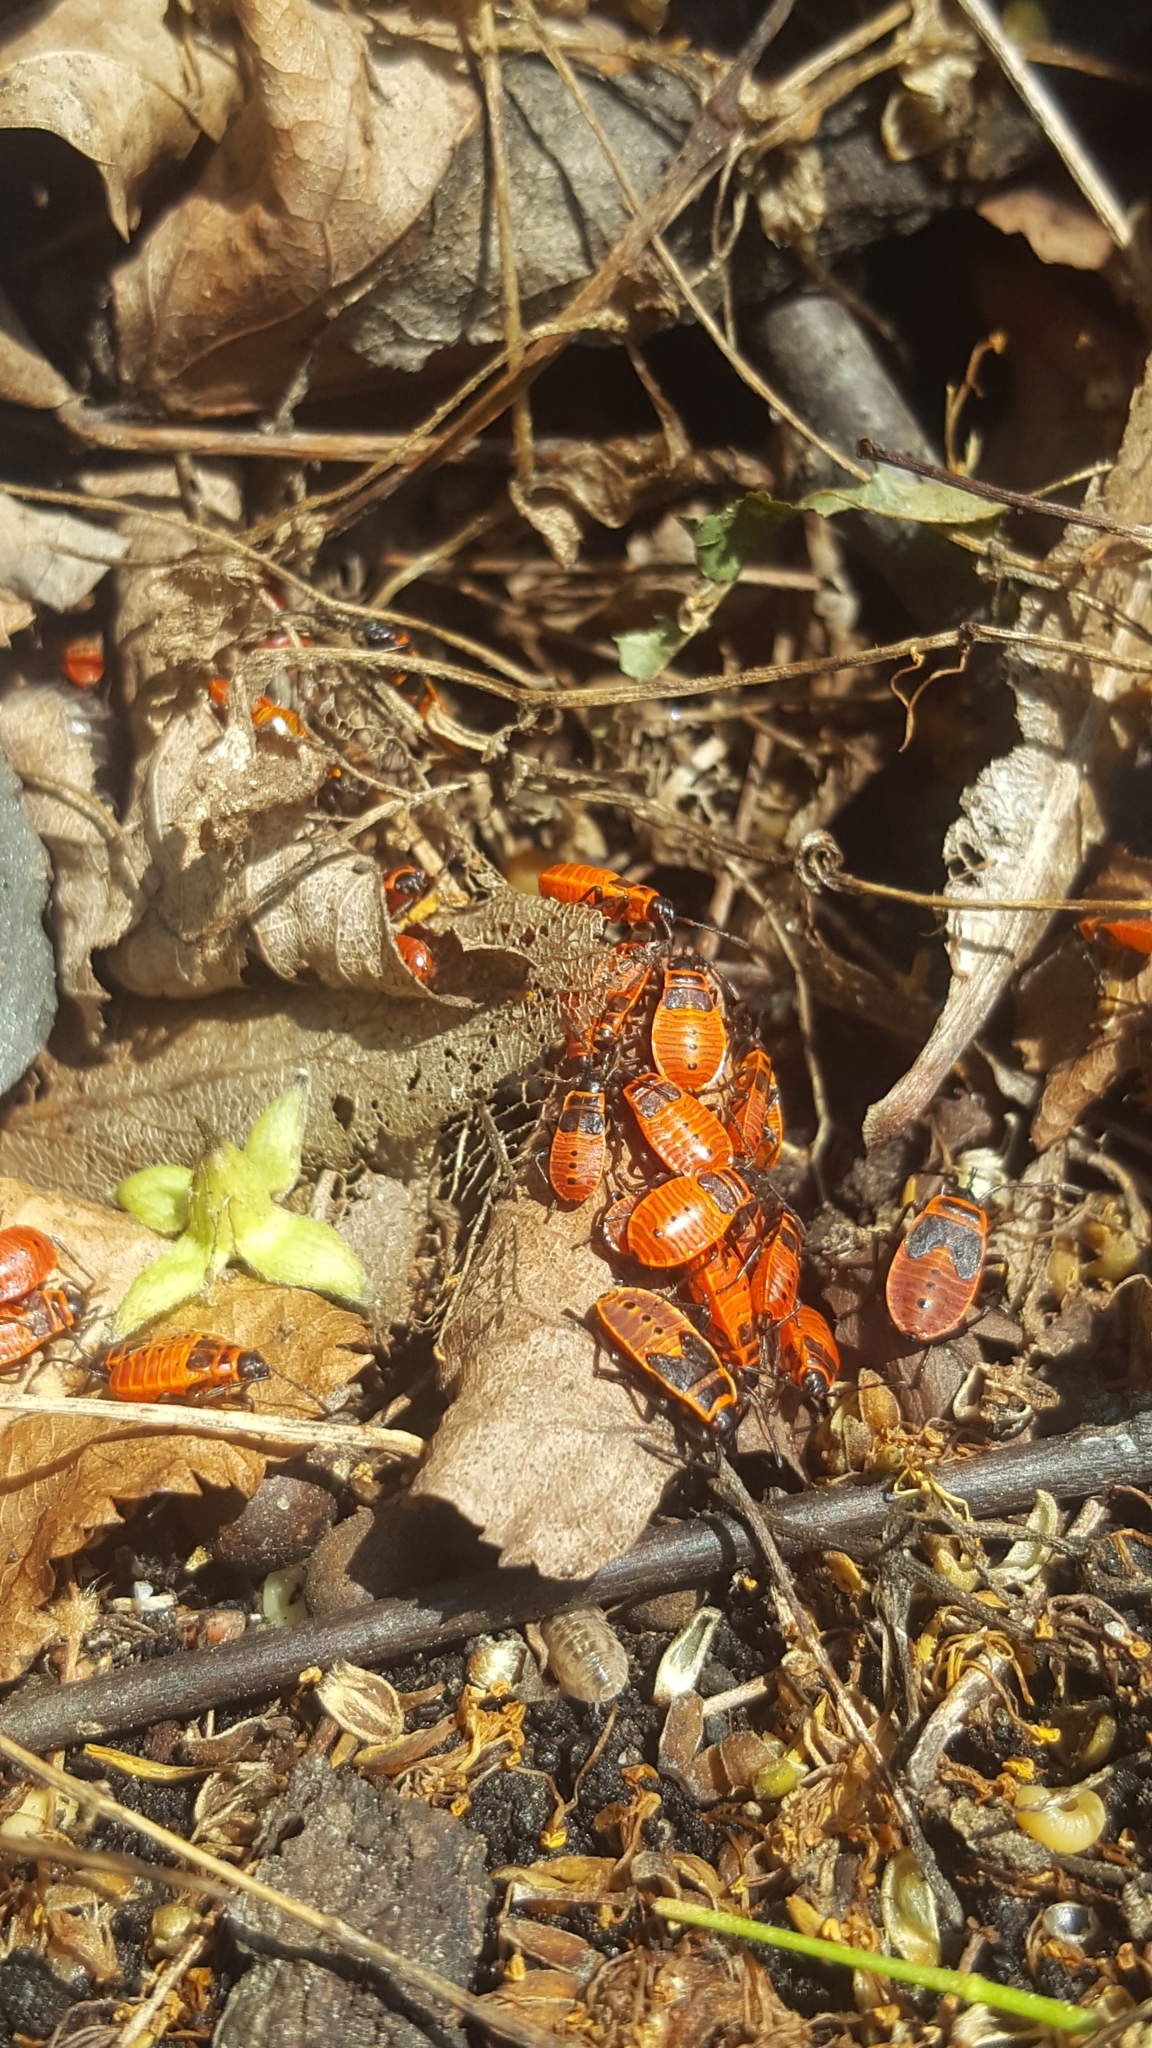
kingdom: Animalia
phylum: Arthropoda
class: Insecta
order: Hemiptera
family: Pyrrhocoridae
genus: Pyrrhocoris
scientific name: Pyrrhocoris apterus
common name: Firebug
